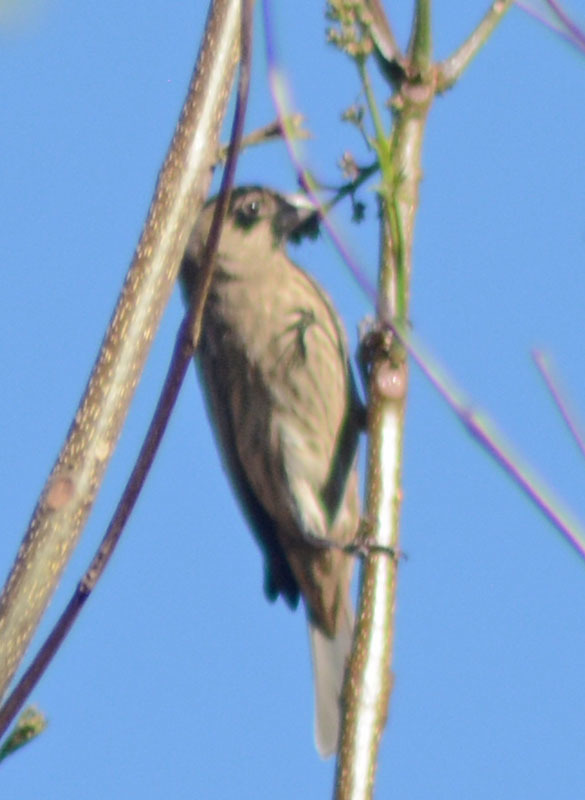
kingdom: Animalia
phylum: Chordata
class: Aves
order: Passeriformes
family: Fringillidae
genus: Haemorhous
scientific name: Haemorhous mexicanus
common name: House finch
